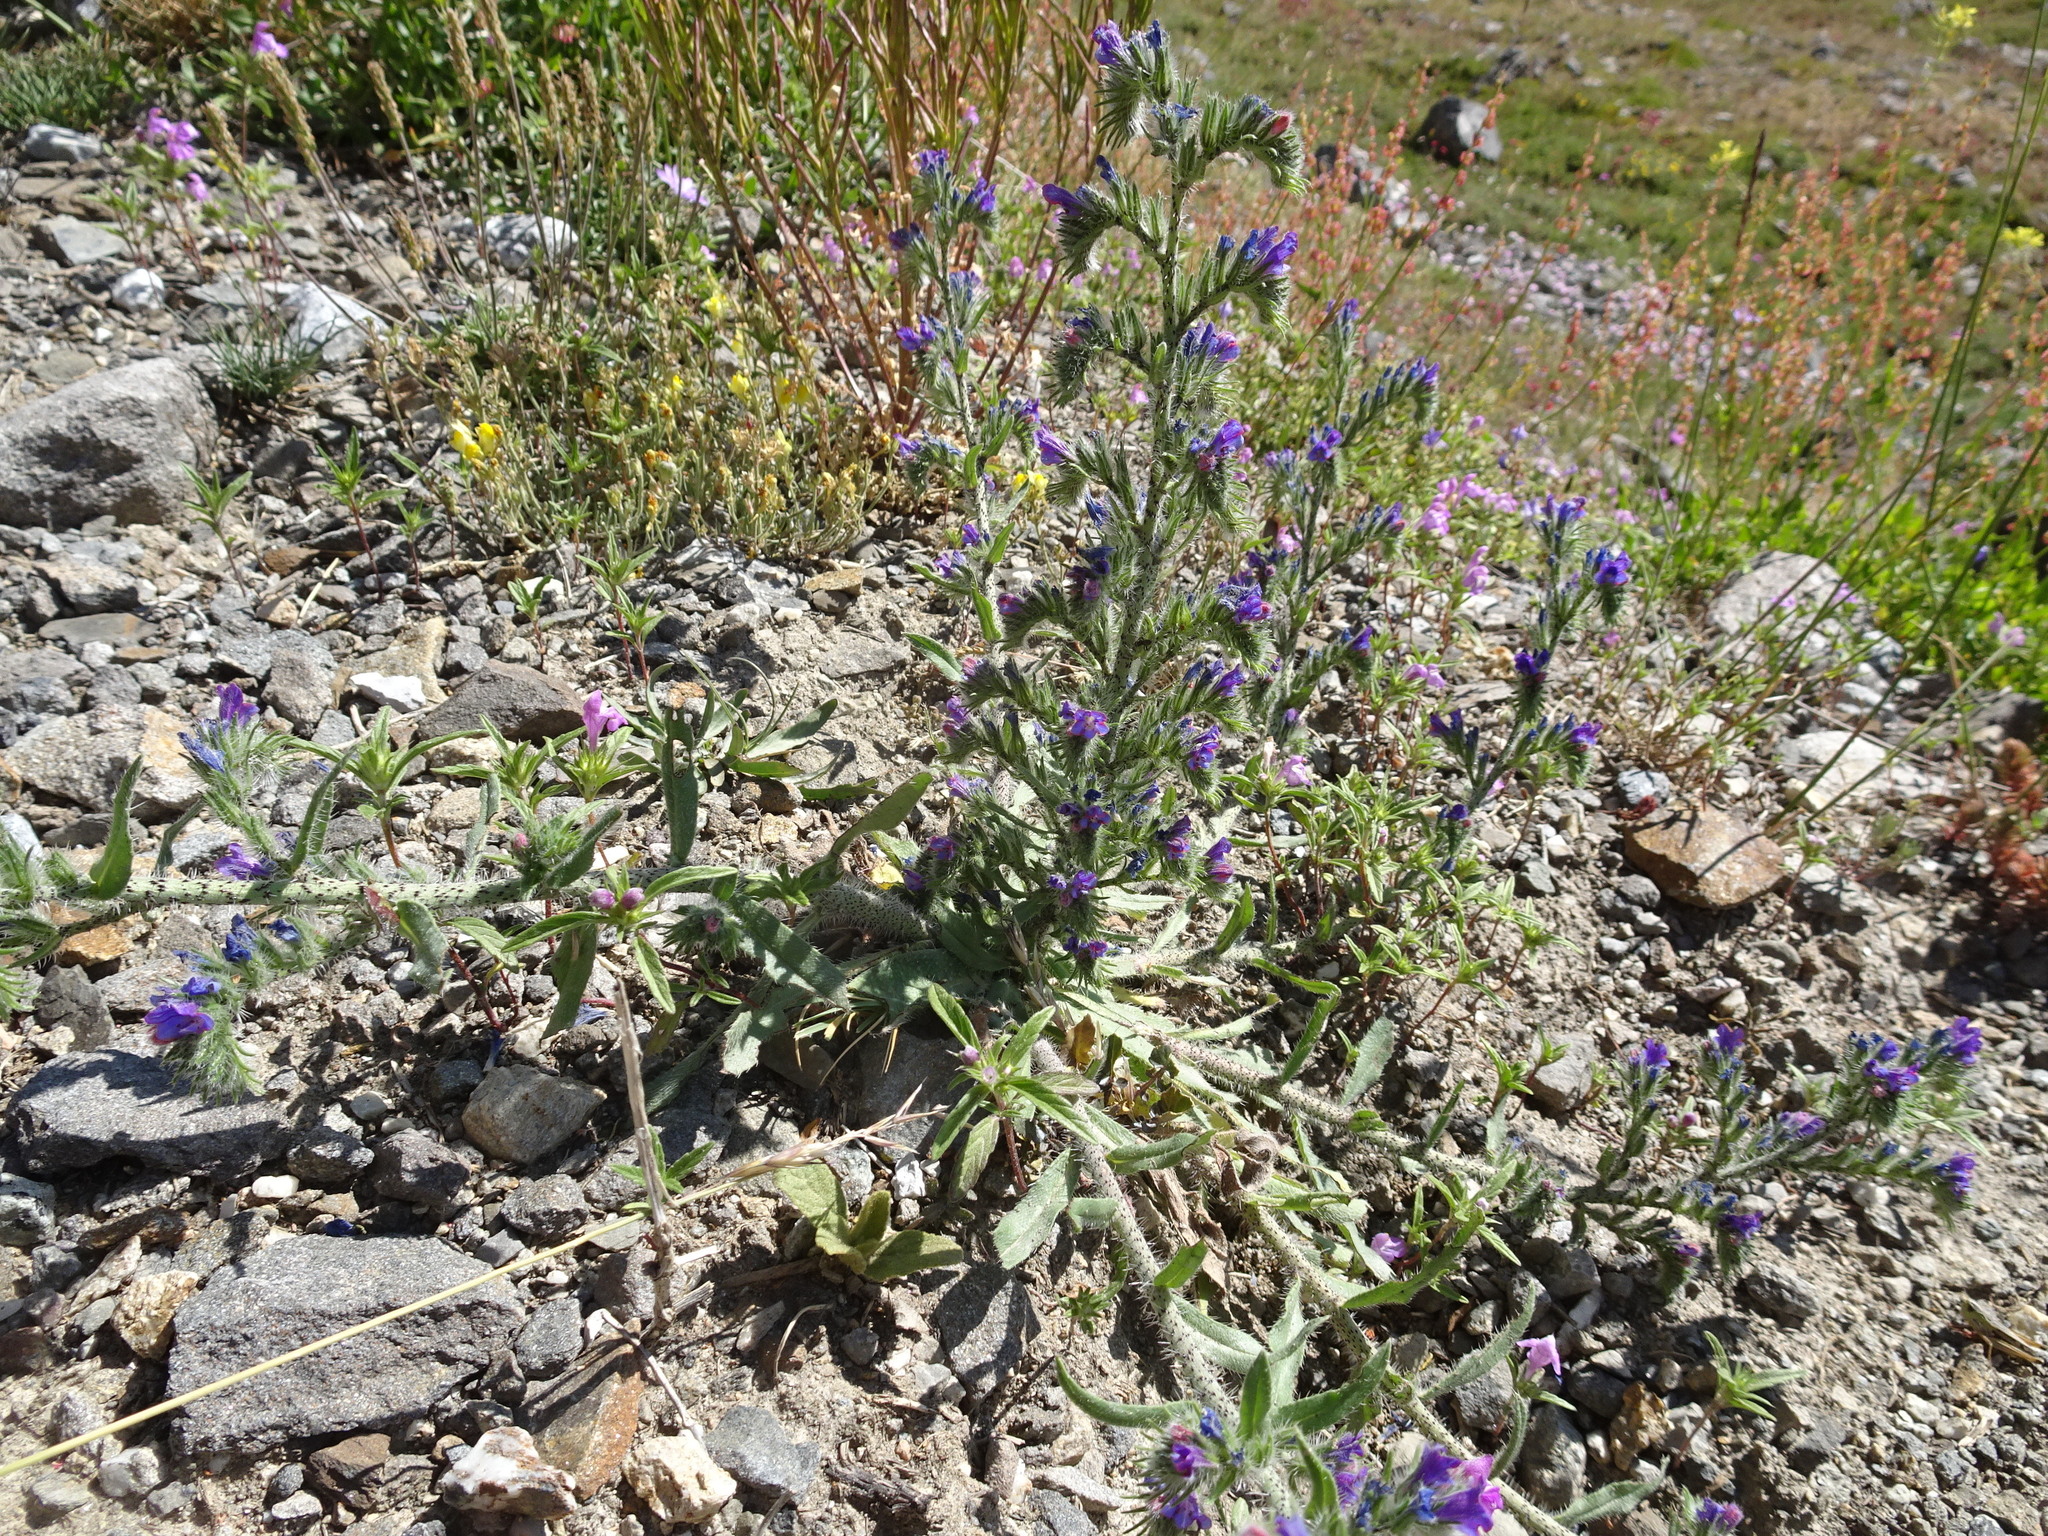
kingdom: Plantae
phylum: Tracheophyta
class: Magnoliopsida
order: Boraginales
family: Boraginaceae
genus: Echium
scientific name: Echium vulgare
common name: Common viper's bugloss
